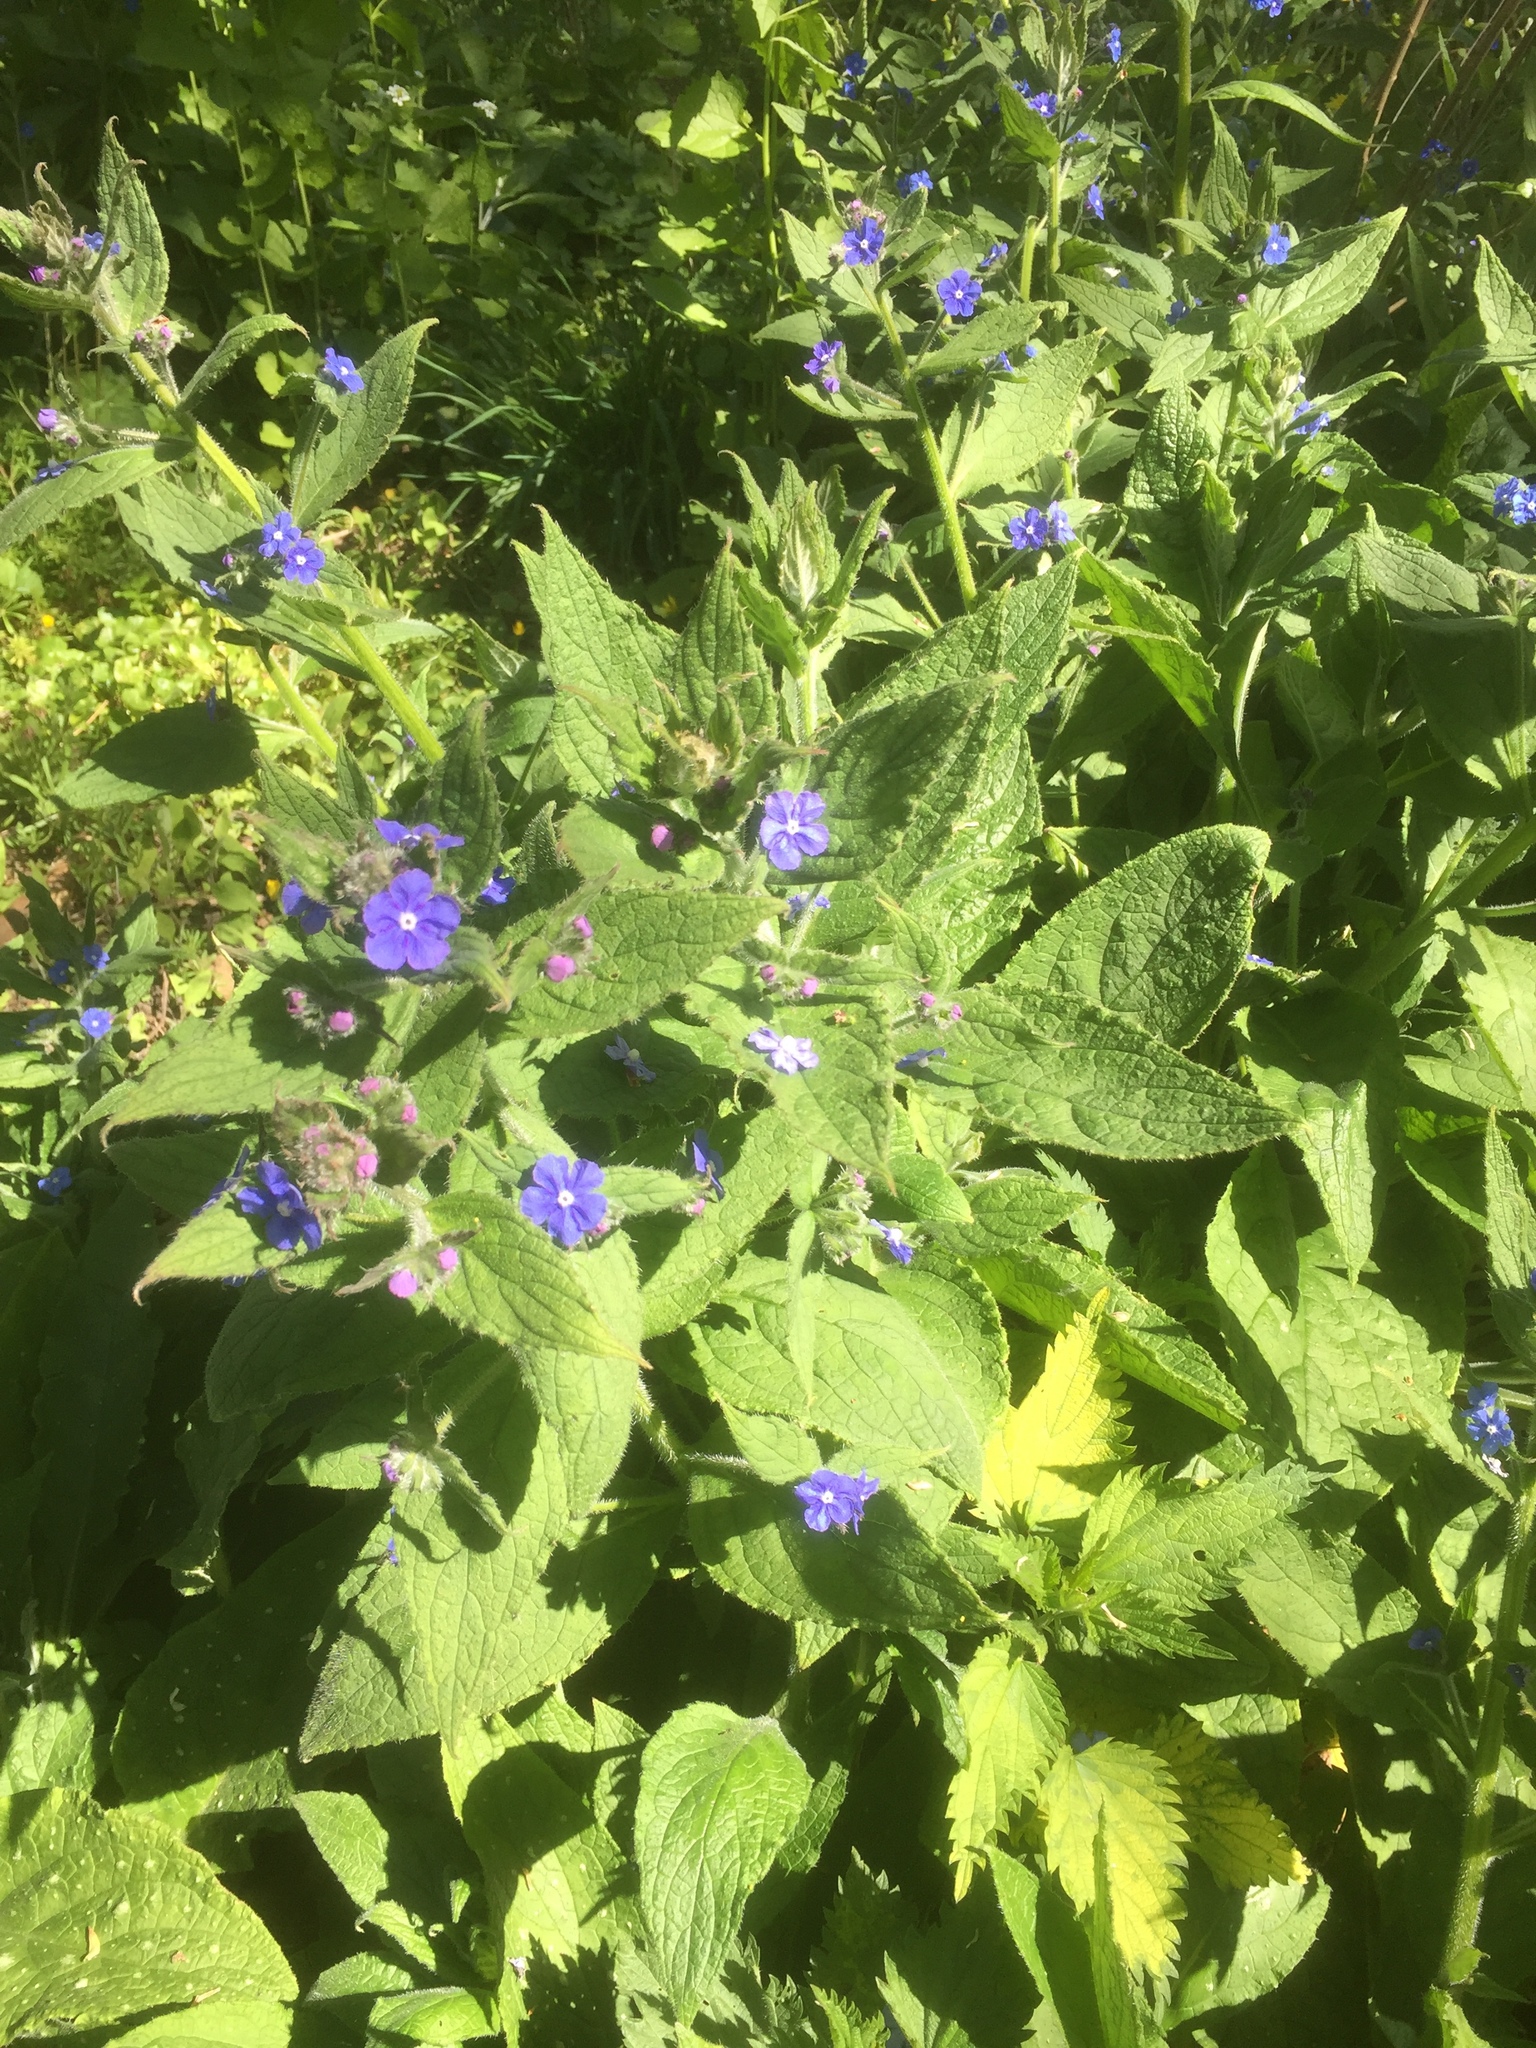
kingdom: Plantae
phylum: Tracheophyta
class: Magnoliopsida
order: Boraginales
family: Boraginaceae
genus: Pentaglottis
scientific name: Pentaglottis sempervirens
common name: Green alkanet
